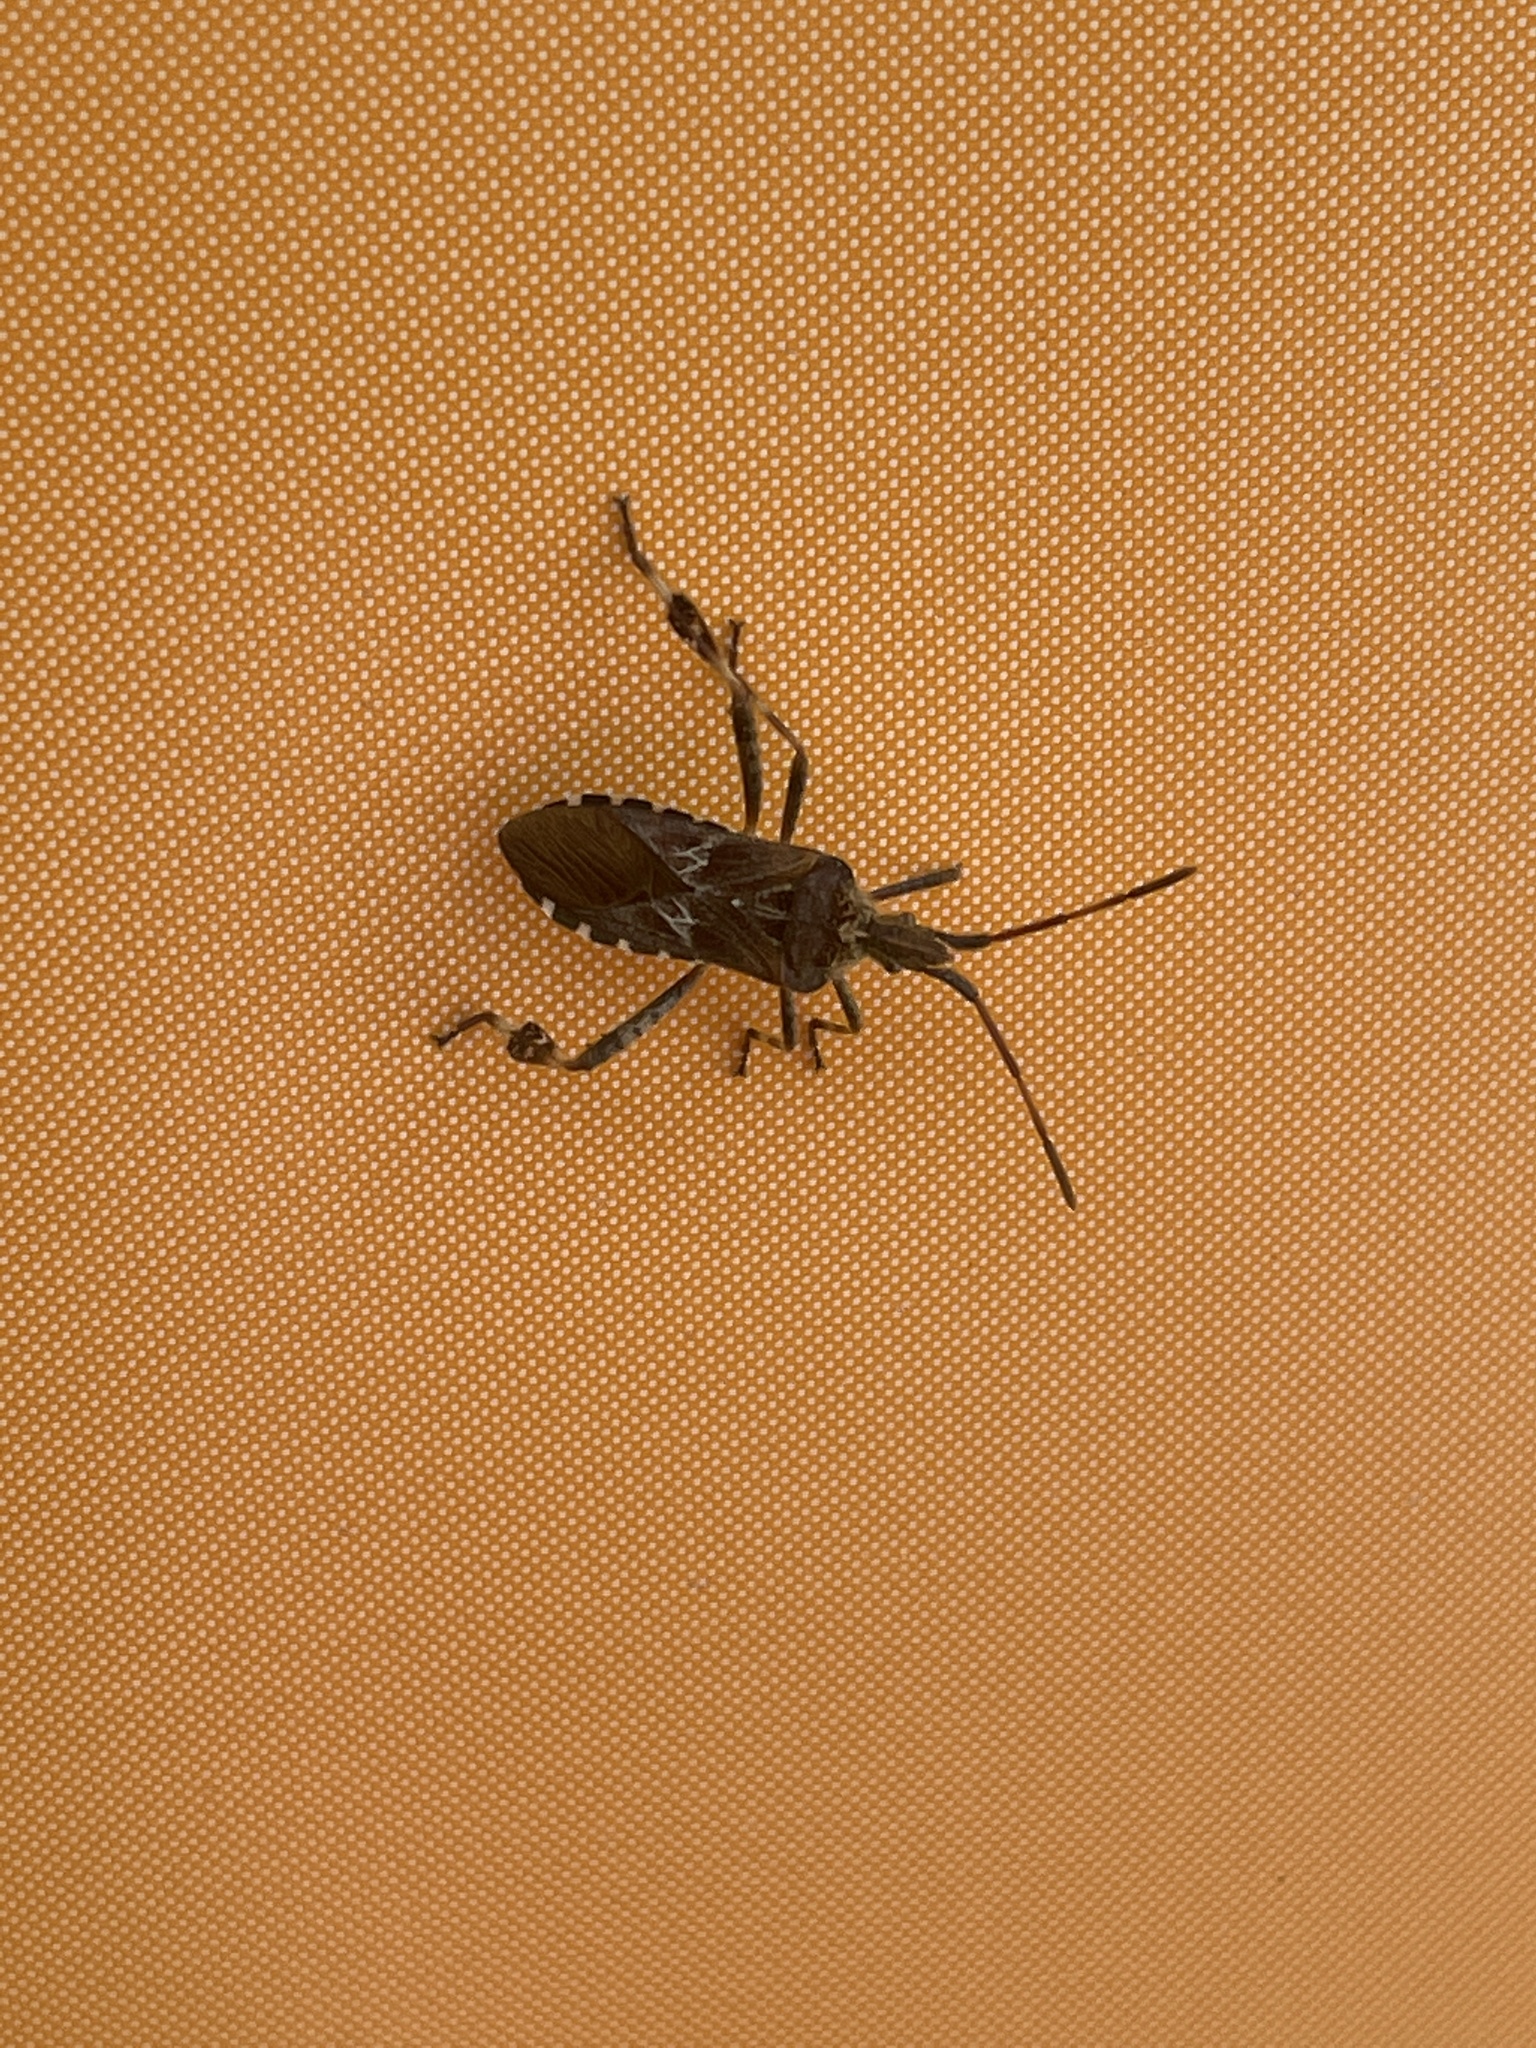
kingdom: Animalia
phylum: Arthropoda
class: Insecta
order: Hemiptera
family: Coreidae
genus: Leptoglossus
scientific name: Leptoglossus occidentalis
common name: Western conifer-seed bug
